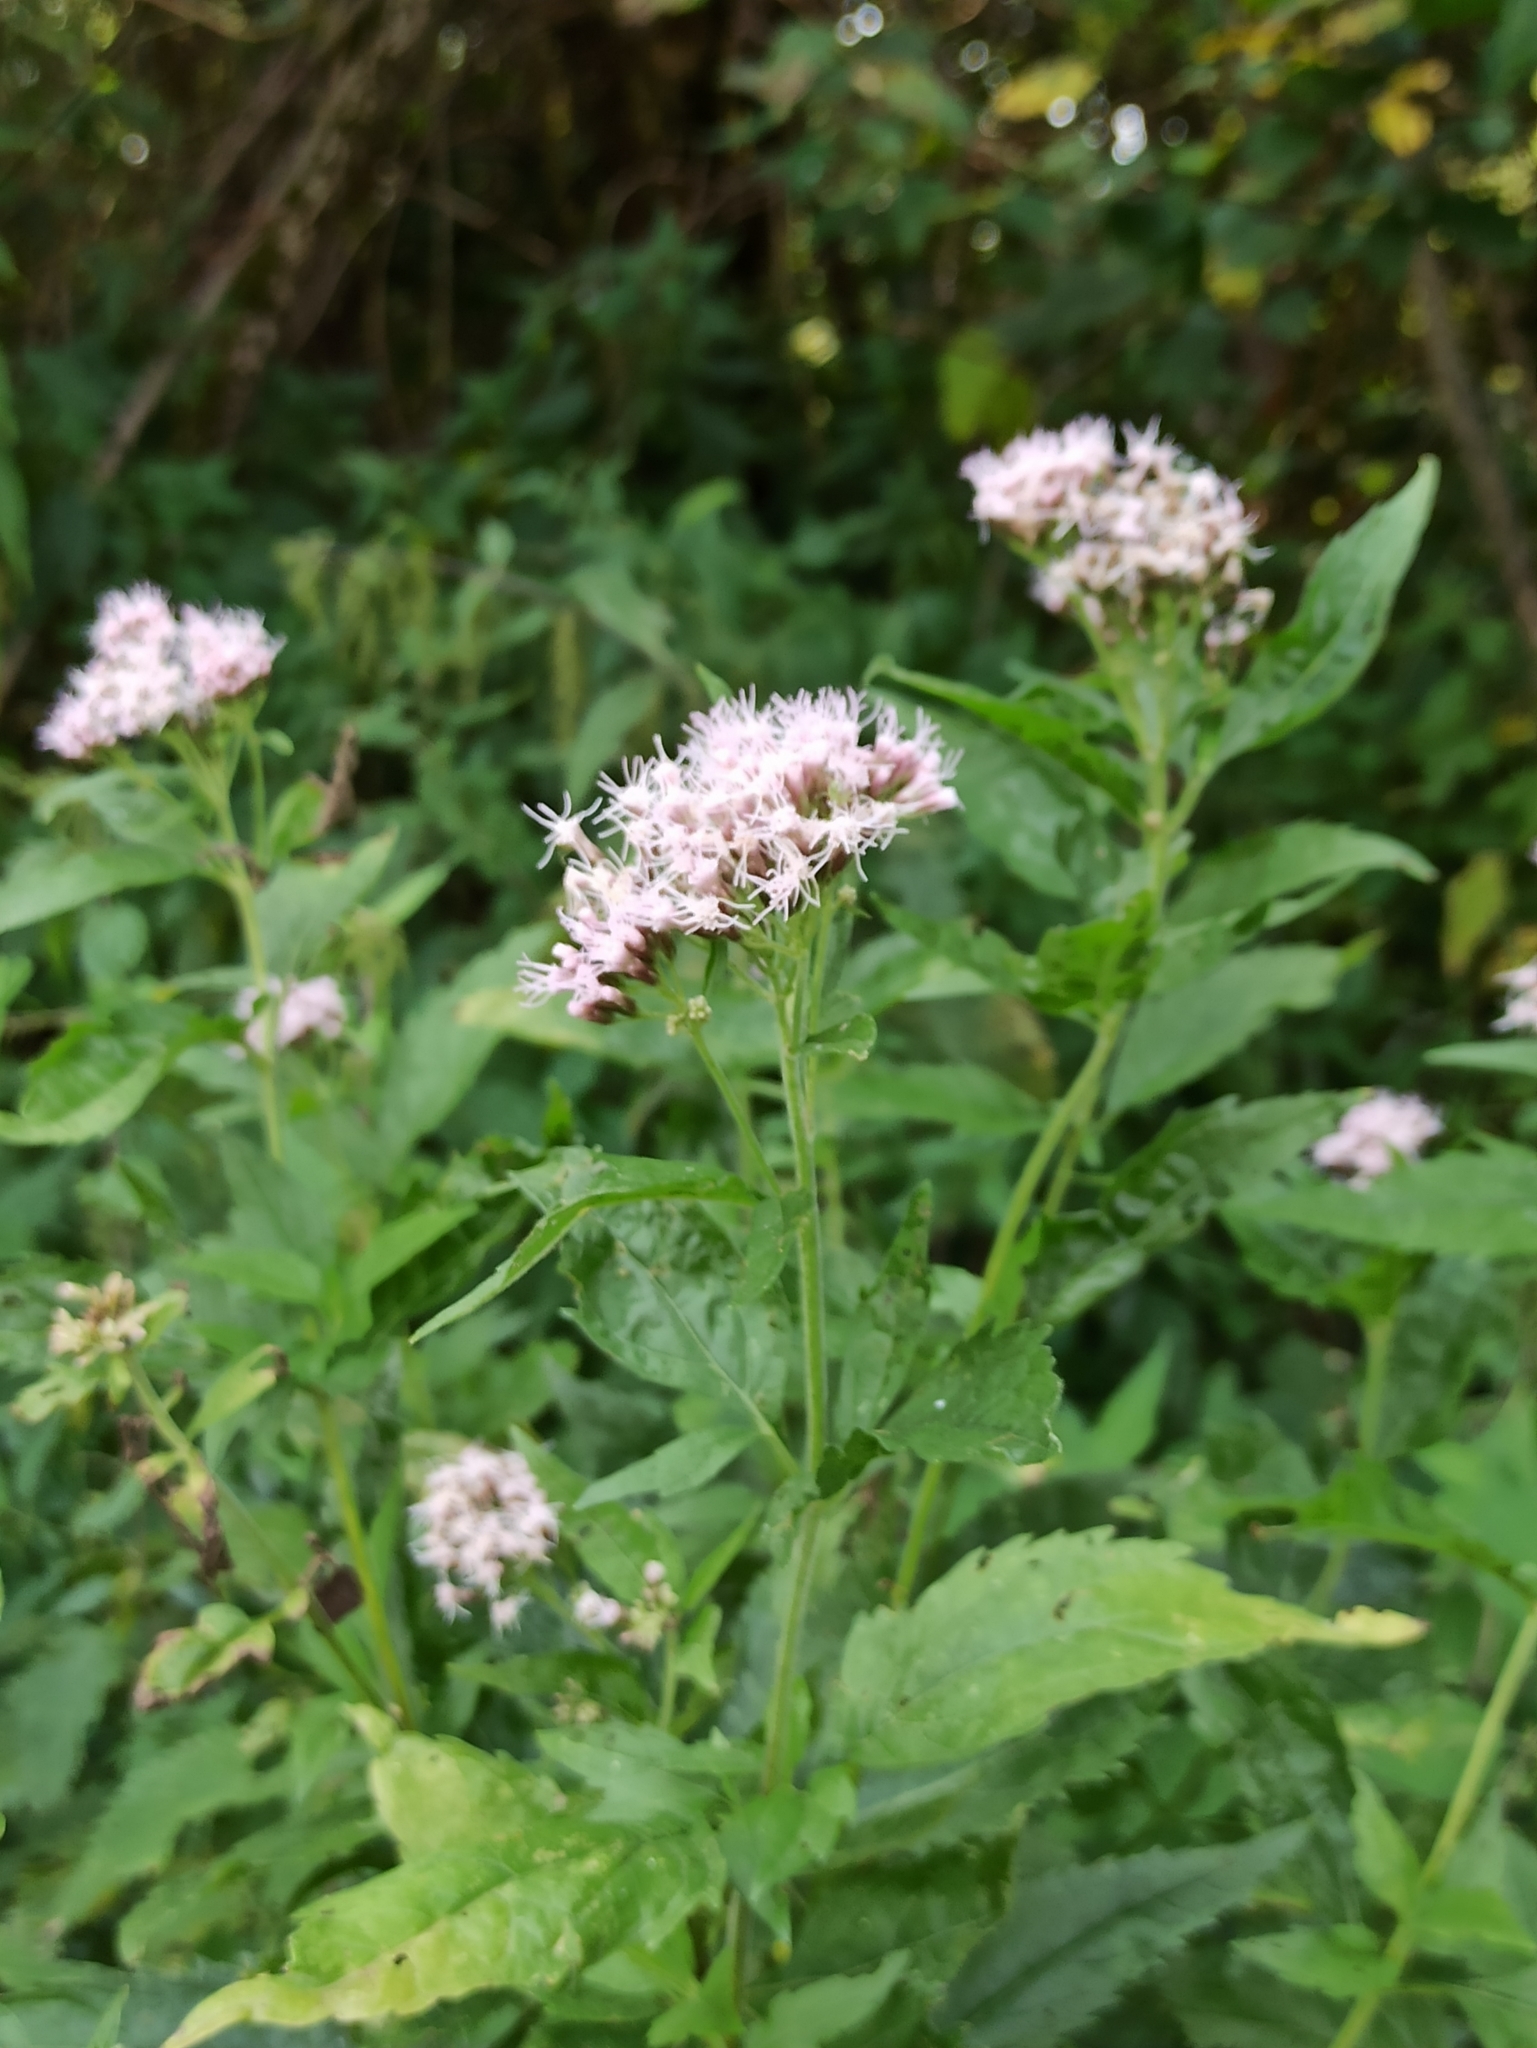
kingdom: Plantae
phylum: Tracheophyta
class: Magnoliopsida
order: Asterales
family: Asteraceae
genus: Eupatorium
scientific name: Eupatorium cannabinum
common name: Hemp-agrimony
